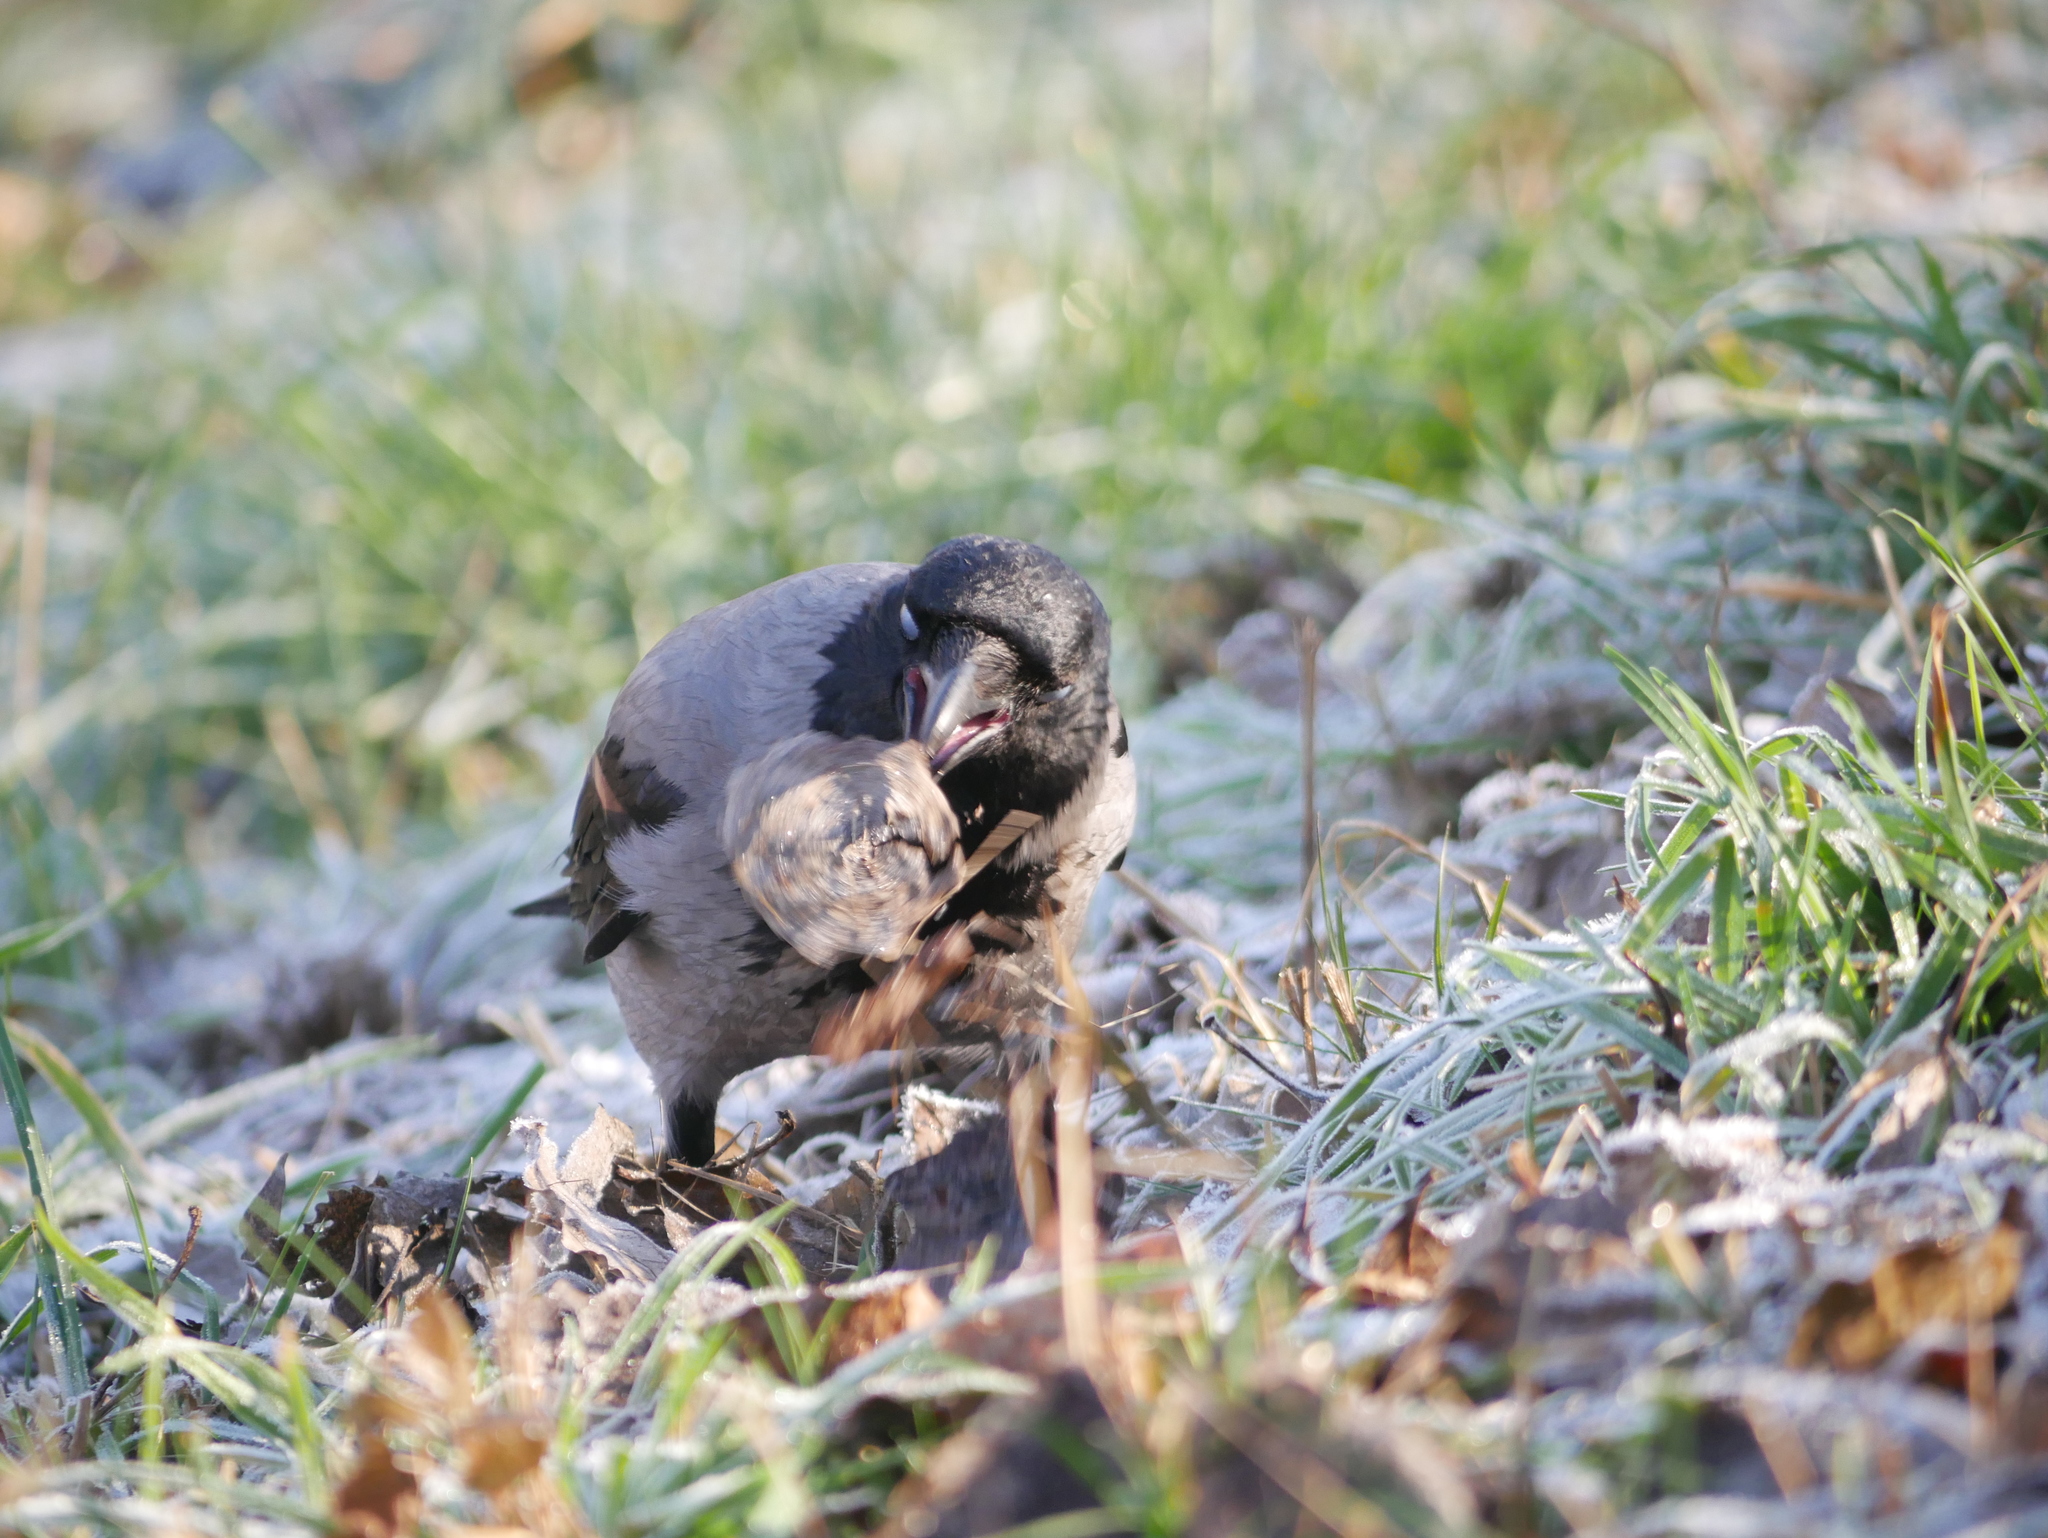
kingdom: Animalia
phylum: Chordata
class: Aves
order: Passeriformes
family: Corvidae
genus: Corvus
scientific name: Corvus cornix
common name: Hooded crow
